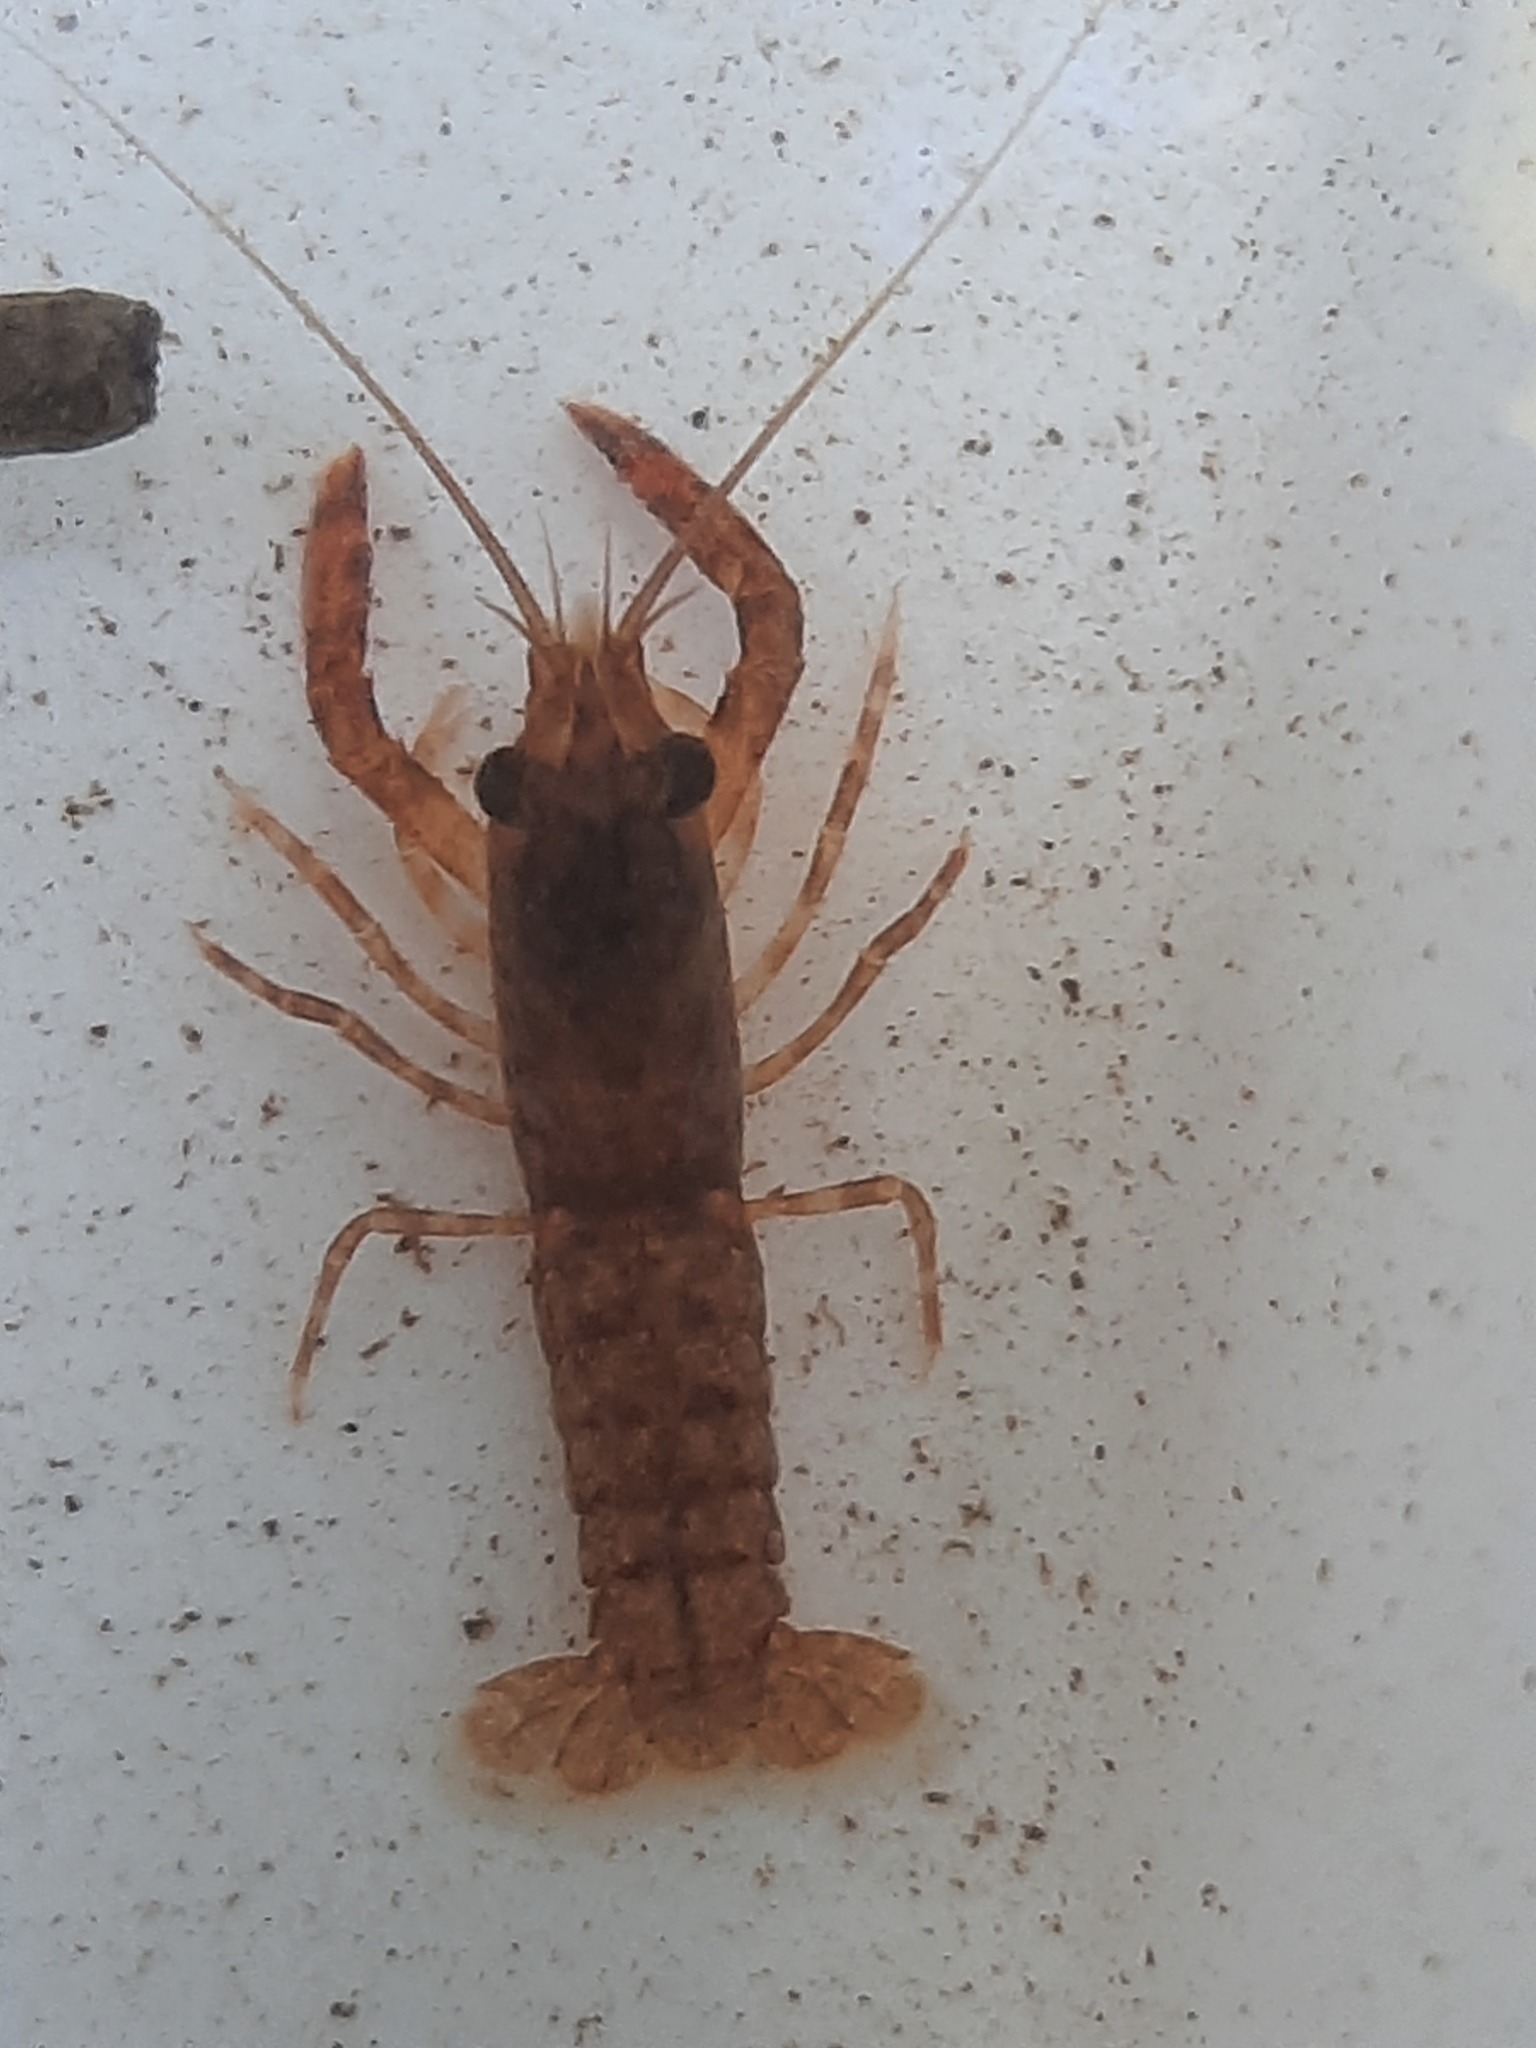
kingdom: Animalia
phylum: Arthropoda
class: Malacostraca
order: Decapoda
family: Parastacidae
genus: Paranephrops
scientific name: Paranephrops planifrons
